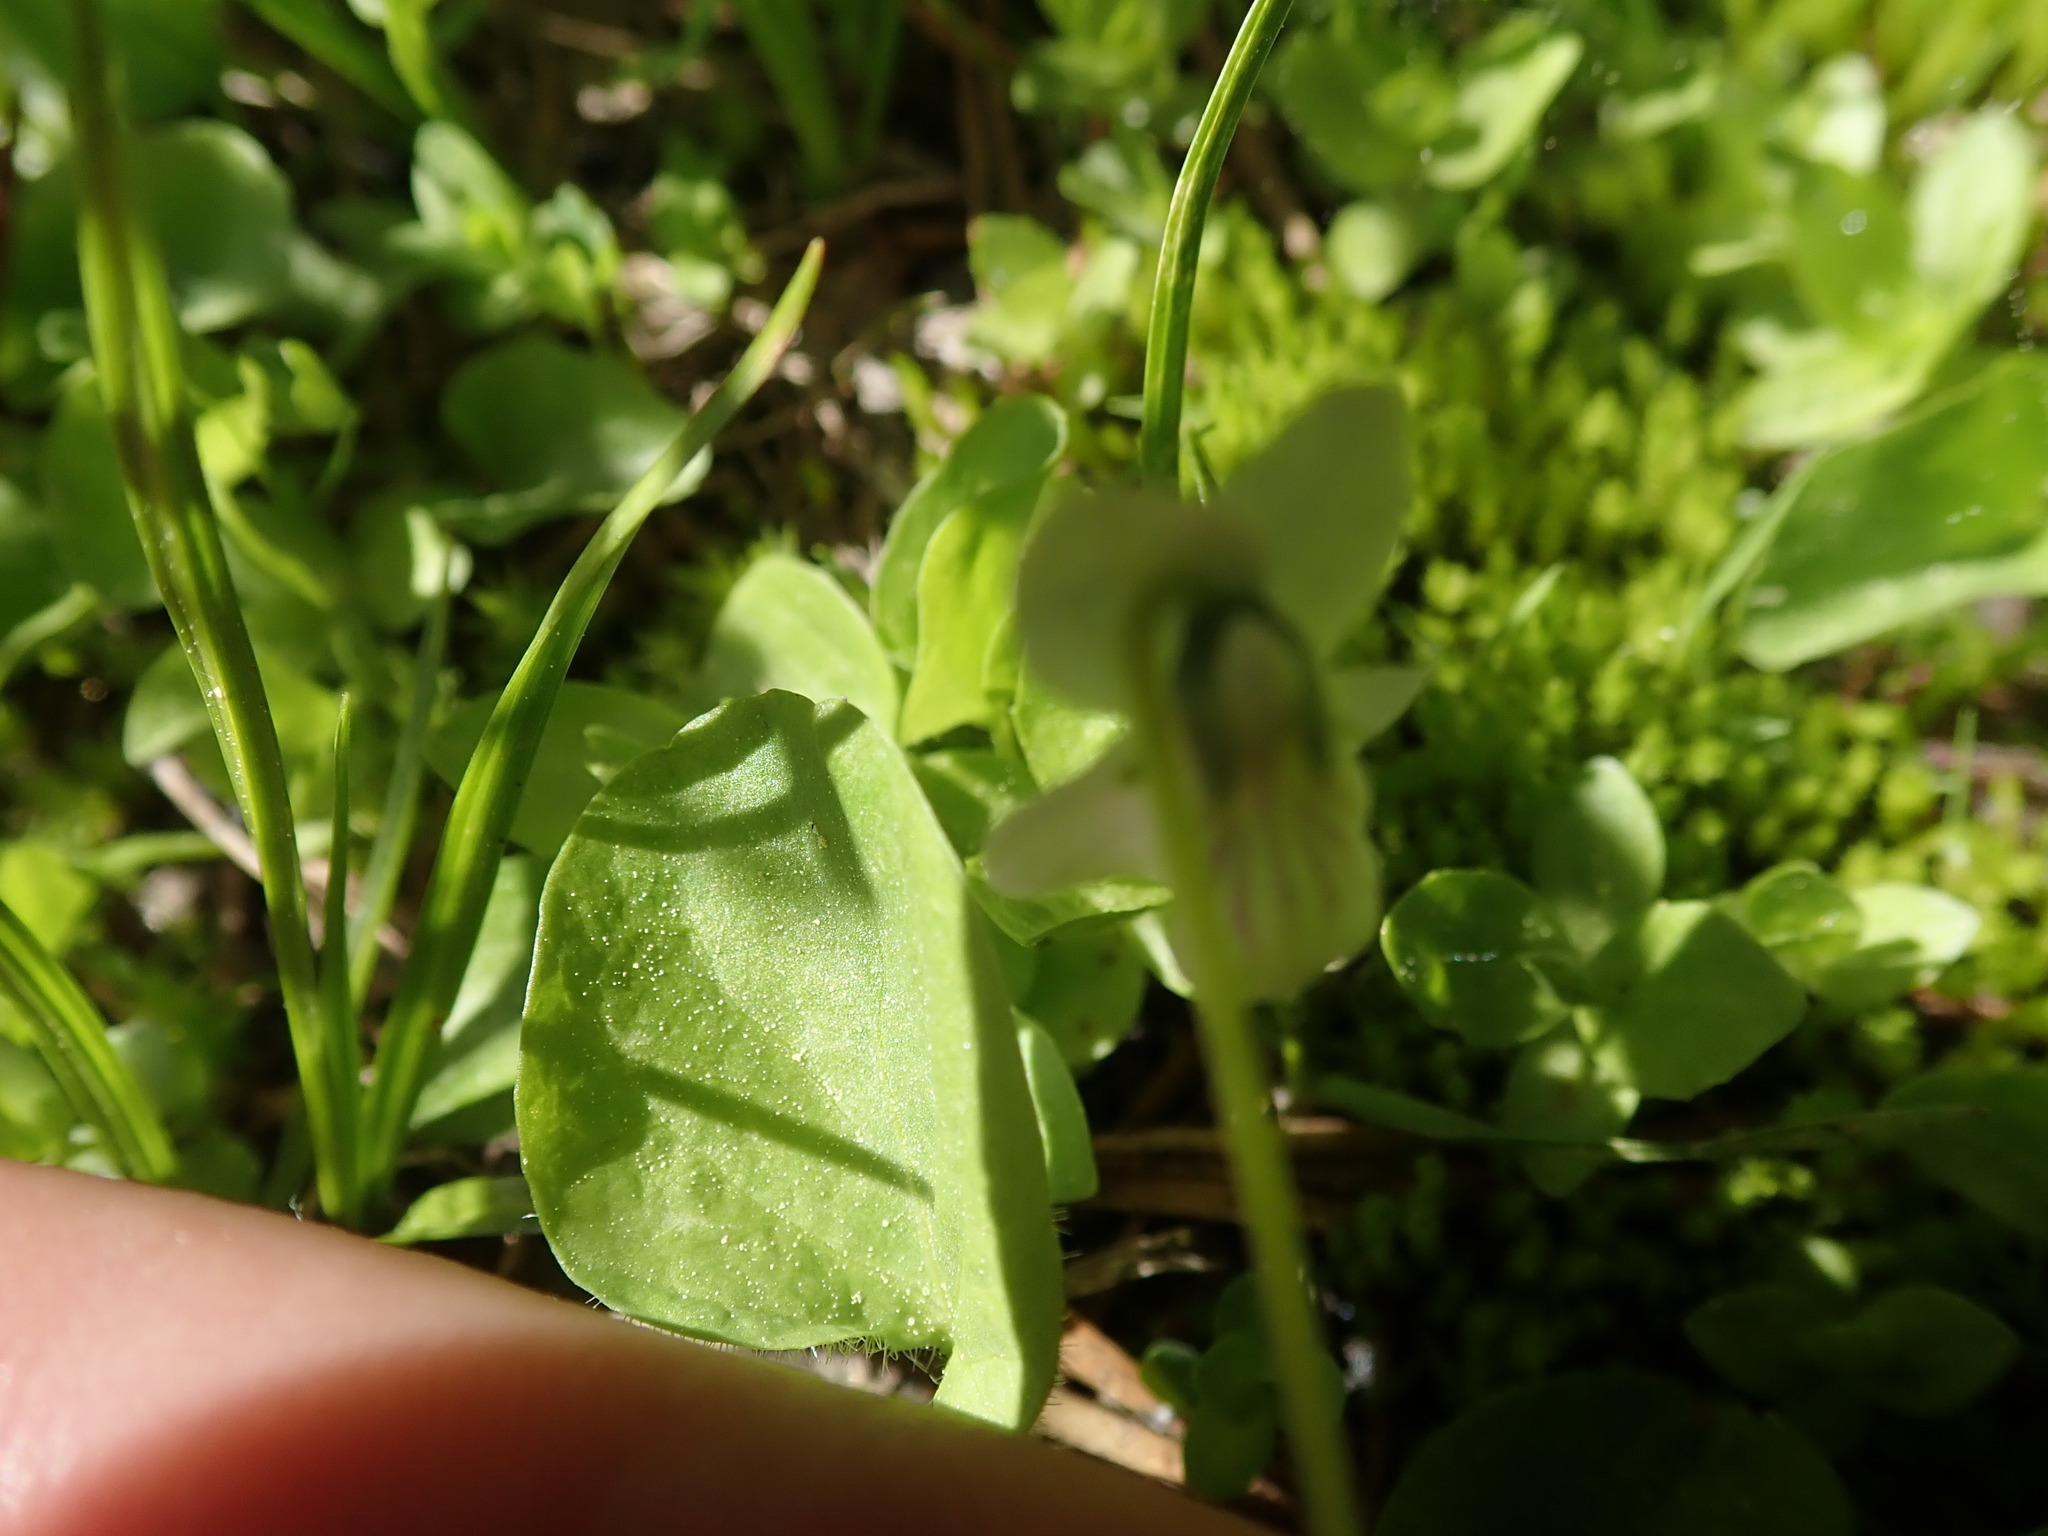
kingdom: Plantae
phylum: Tracheophyta
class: Magnoliopsida
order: Malpighiales
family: Violaceae
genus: Viola
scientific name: Viola macloskeyi
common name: Macloskey's violet
